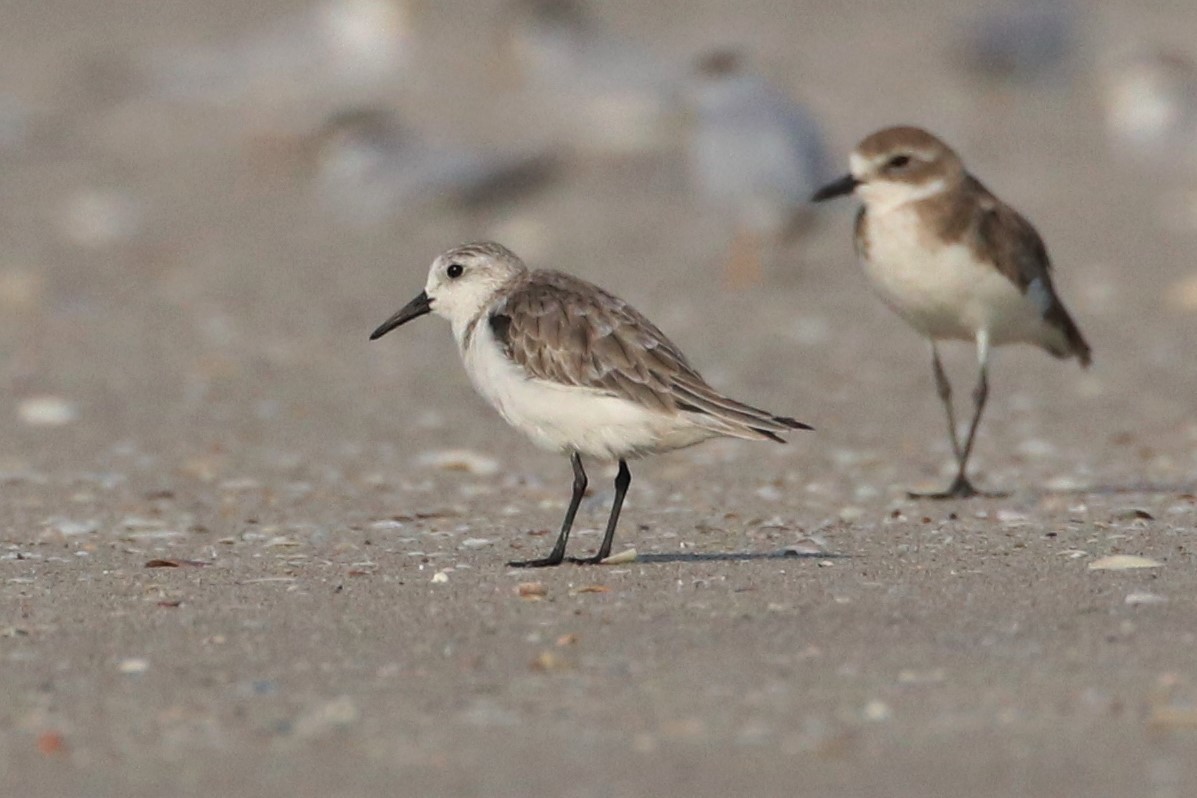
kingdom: Animalia
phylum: Chordata
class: Aves
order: Charadriiformes
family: Scolopacidae
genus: Calidris
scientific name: Calidris alba
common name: Sanderling
